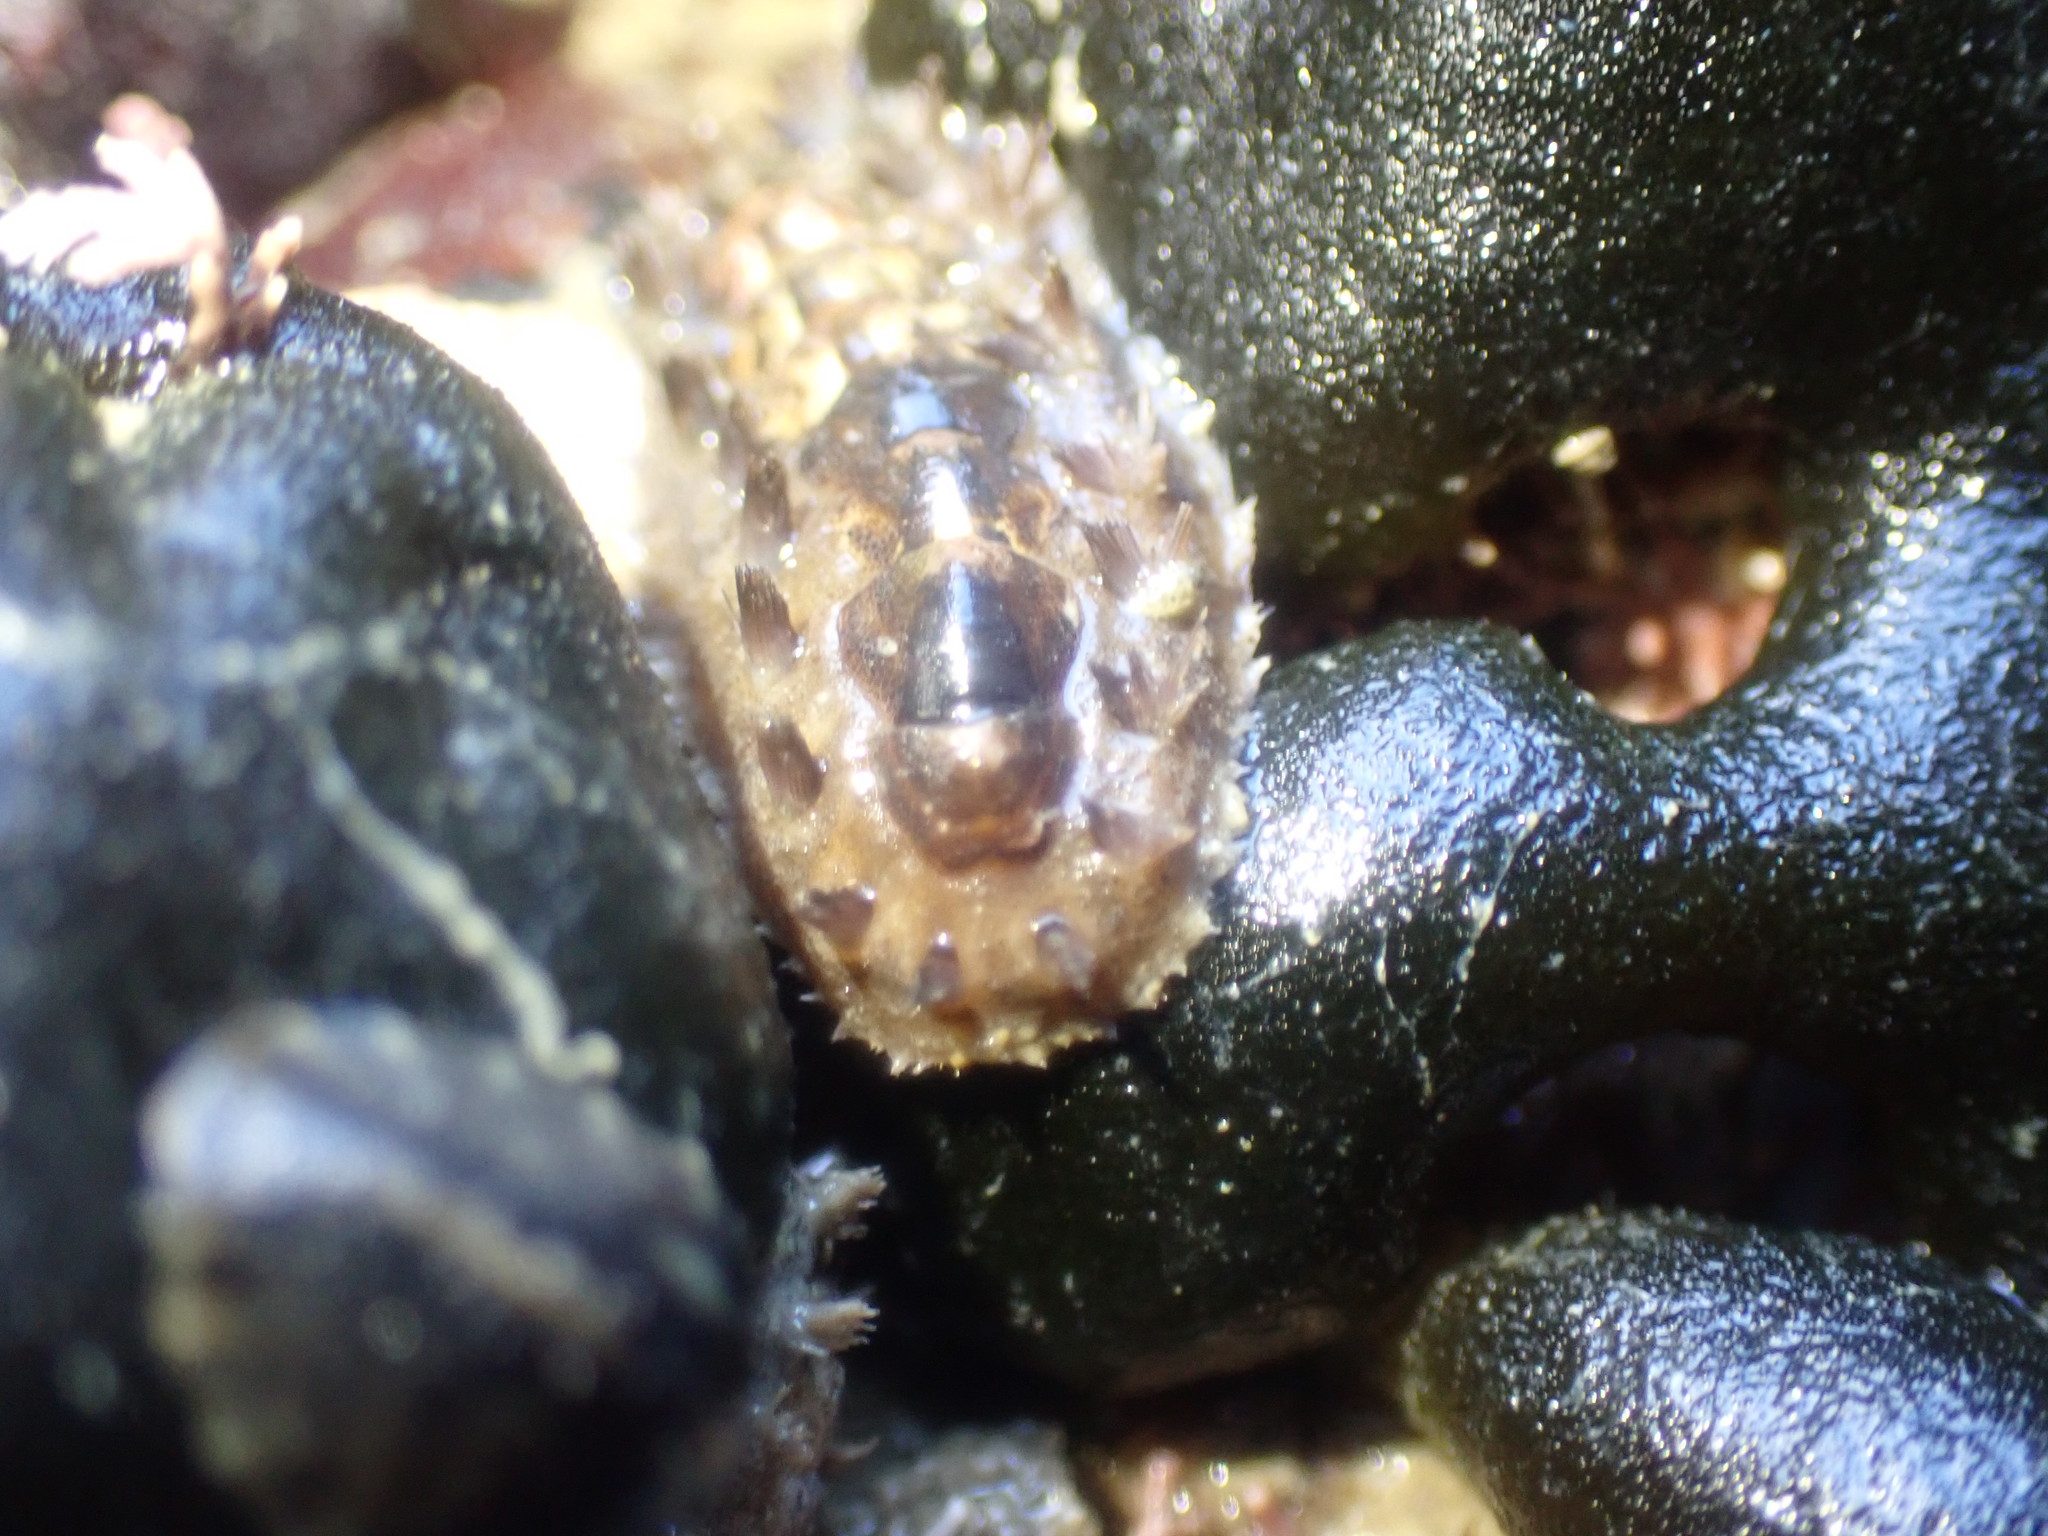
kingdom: Animalia
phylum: Mollusca
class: Polyplacophora
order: Chitonida
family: Acanthochitonidae
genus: Acanthochitona
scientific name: Acanthochitona zelandica
